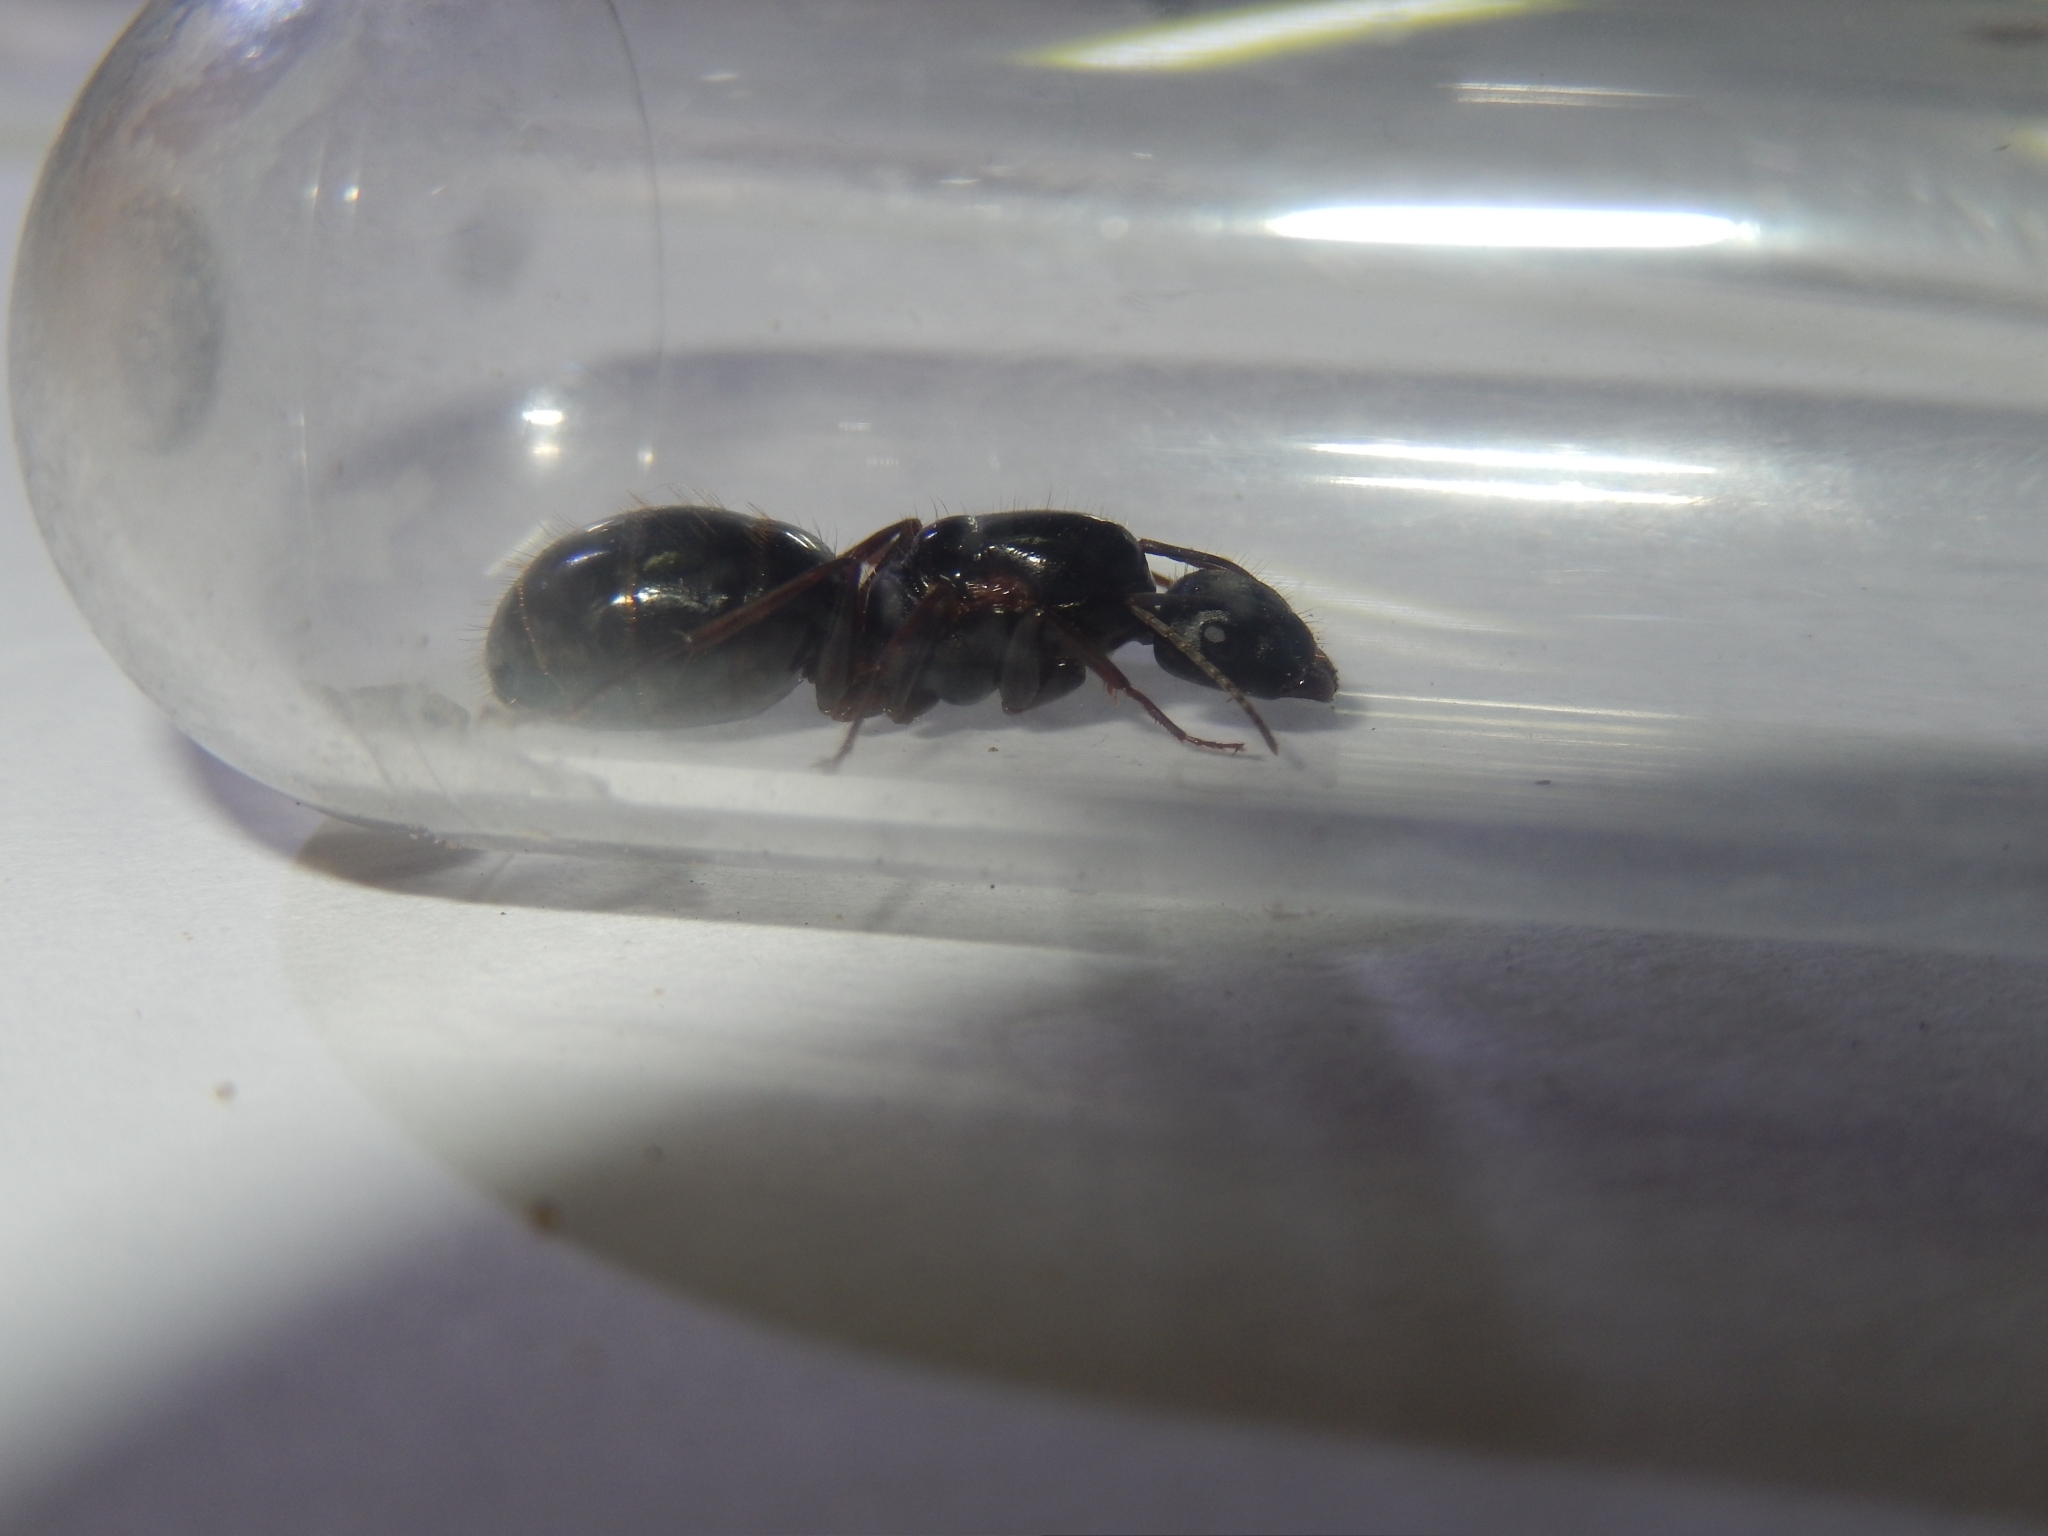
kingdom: Animalia
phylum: Arthropoda
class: Insecta
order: Hymenoptera
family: Formicidae
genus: Camponotus
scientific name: Camponotus aethiops
